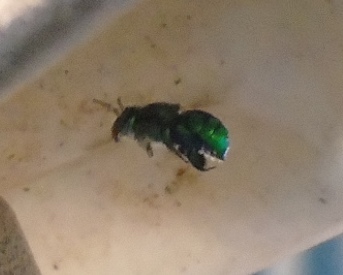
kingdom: Animalia
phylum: Arthropoda
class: Insecta
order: Hymenoptera
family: Apidae
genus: Euglossa
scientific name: Euglossa
